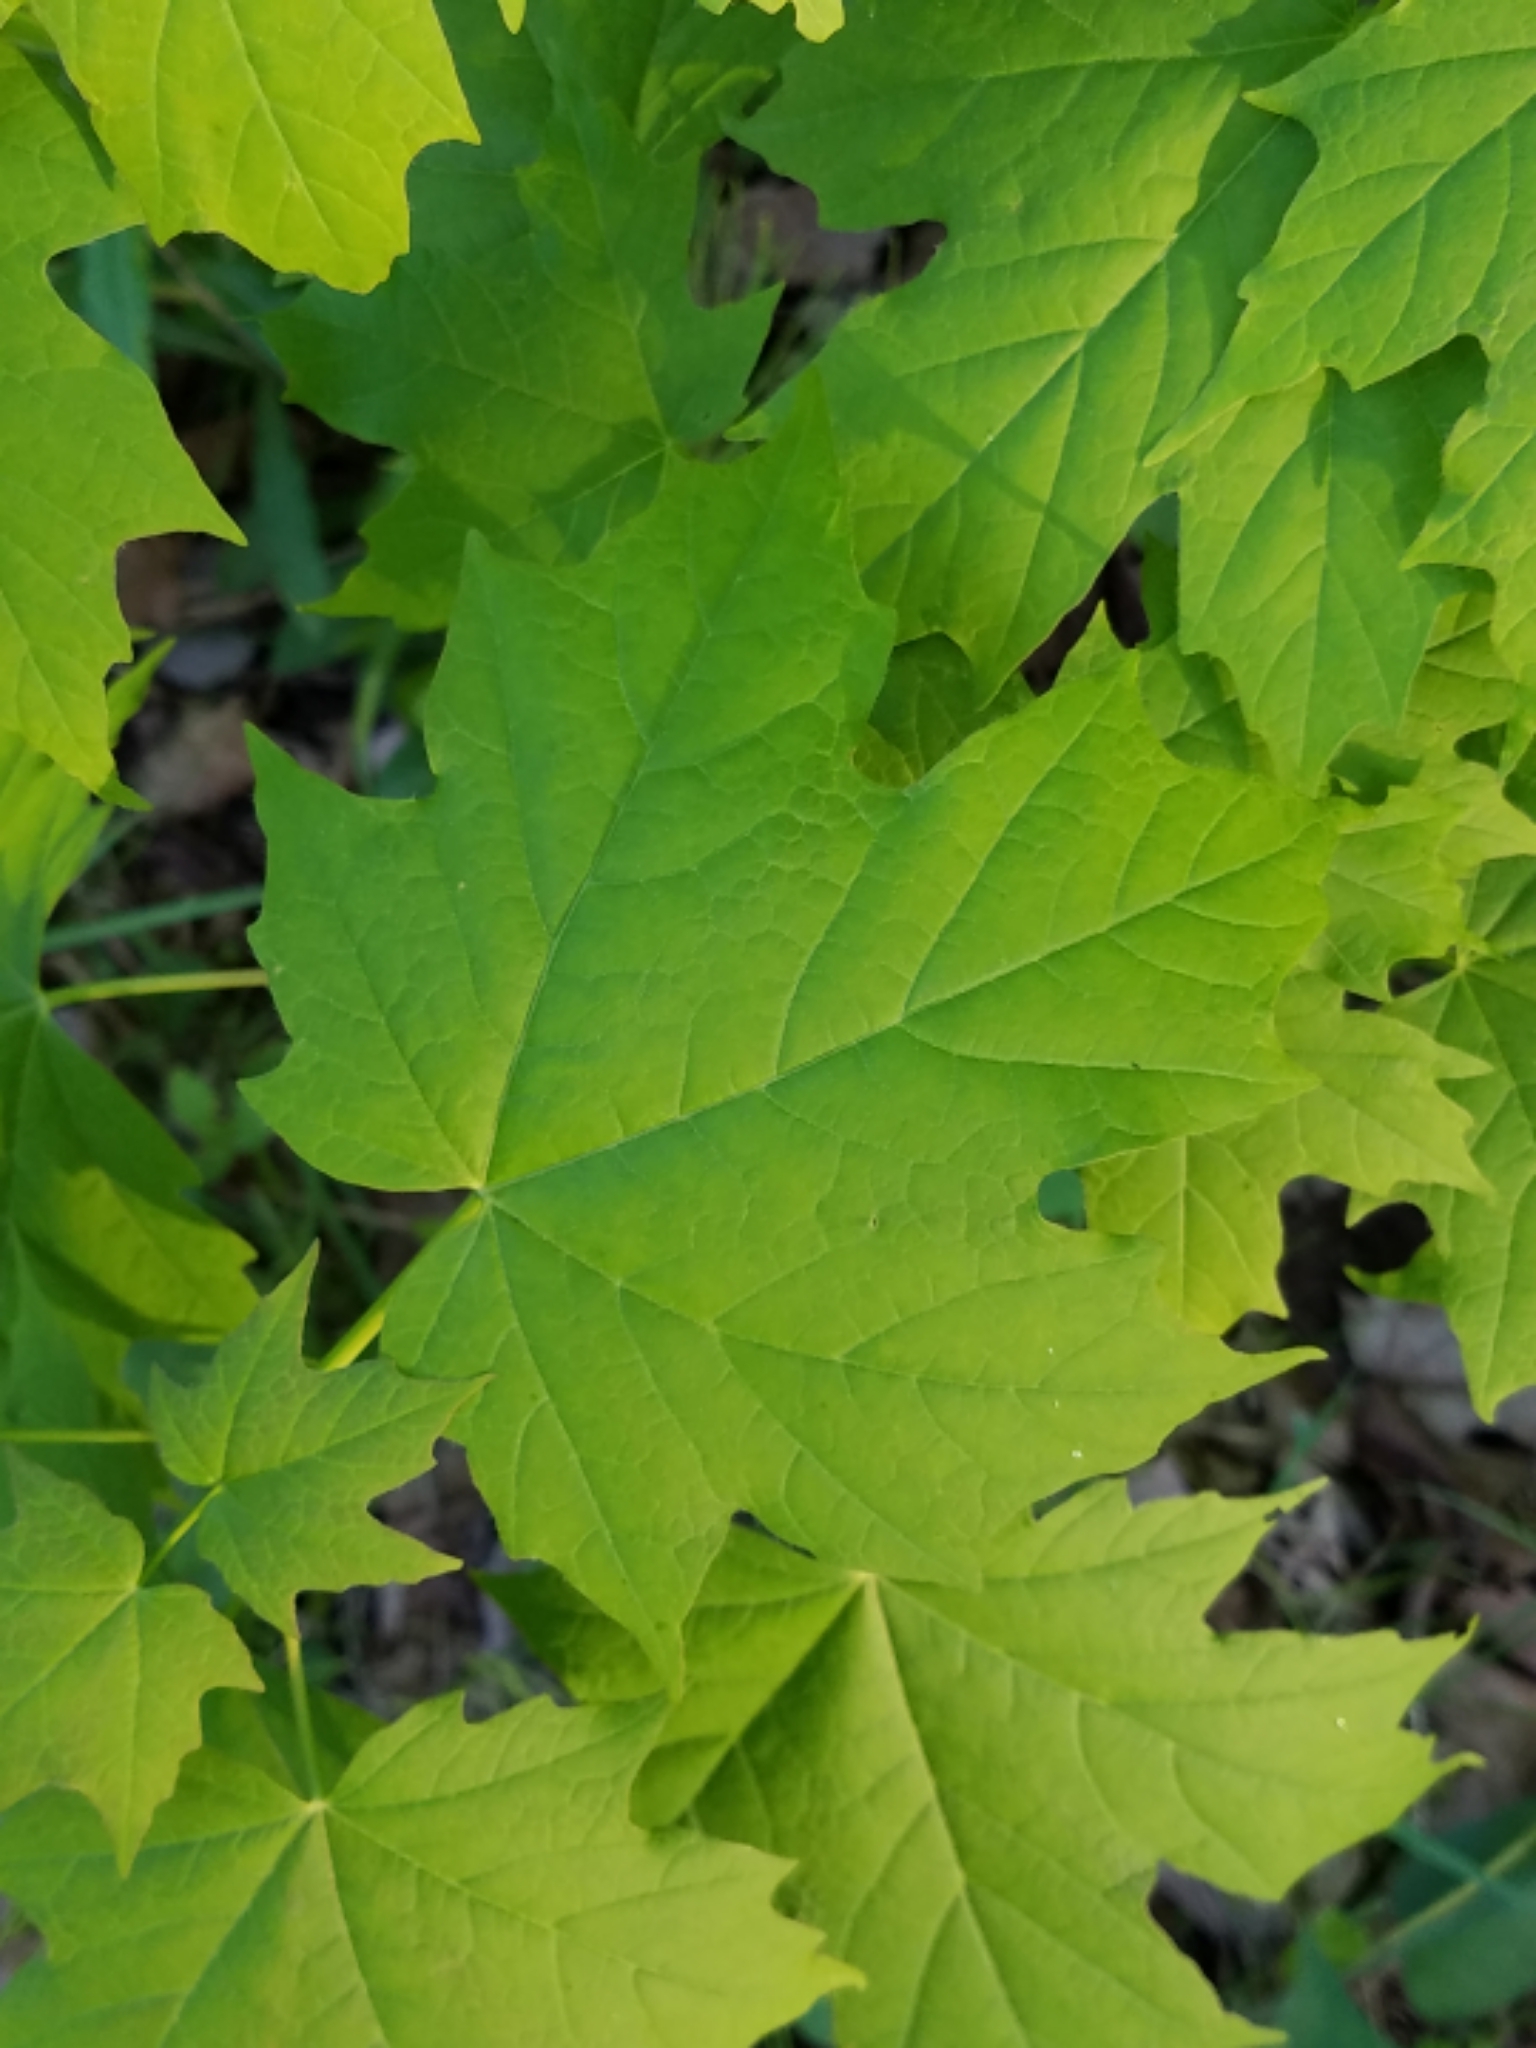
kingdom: Plantae
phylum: Tracheophyta
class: Magnoliopsida
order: Sapindales
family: Sapindaceae
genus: Acer
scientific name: Acer saccharum
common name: Sugar maple
